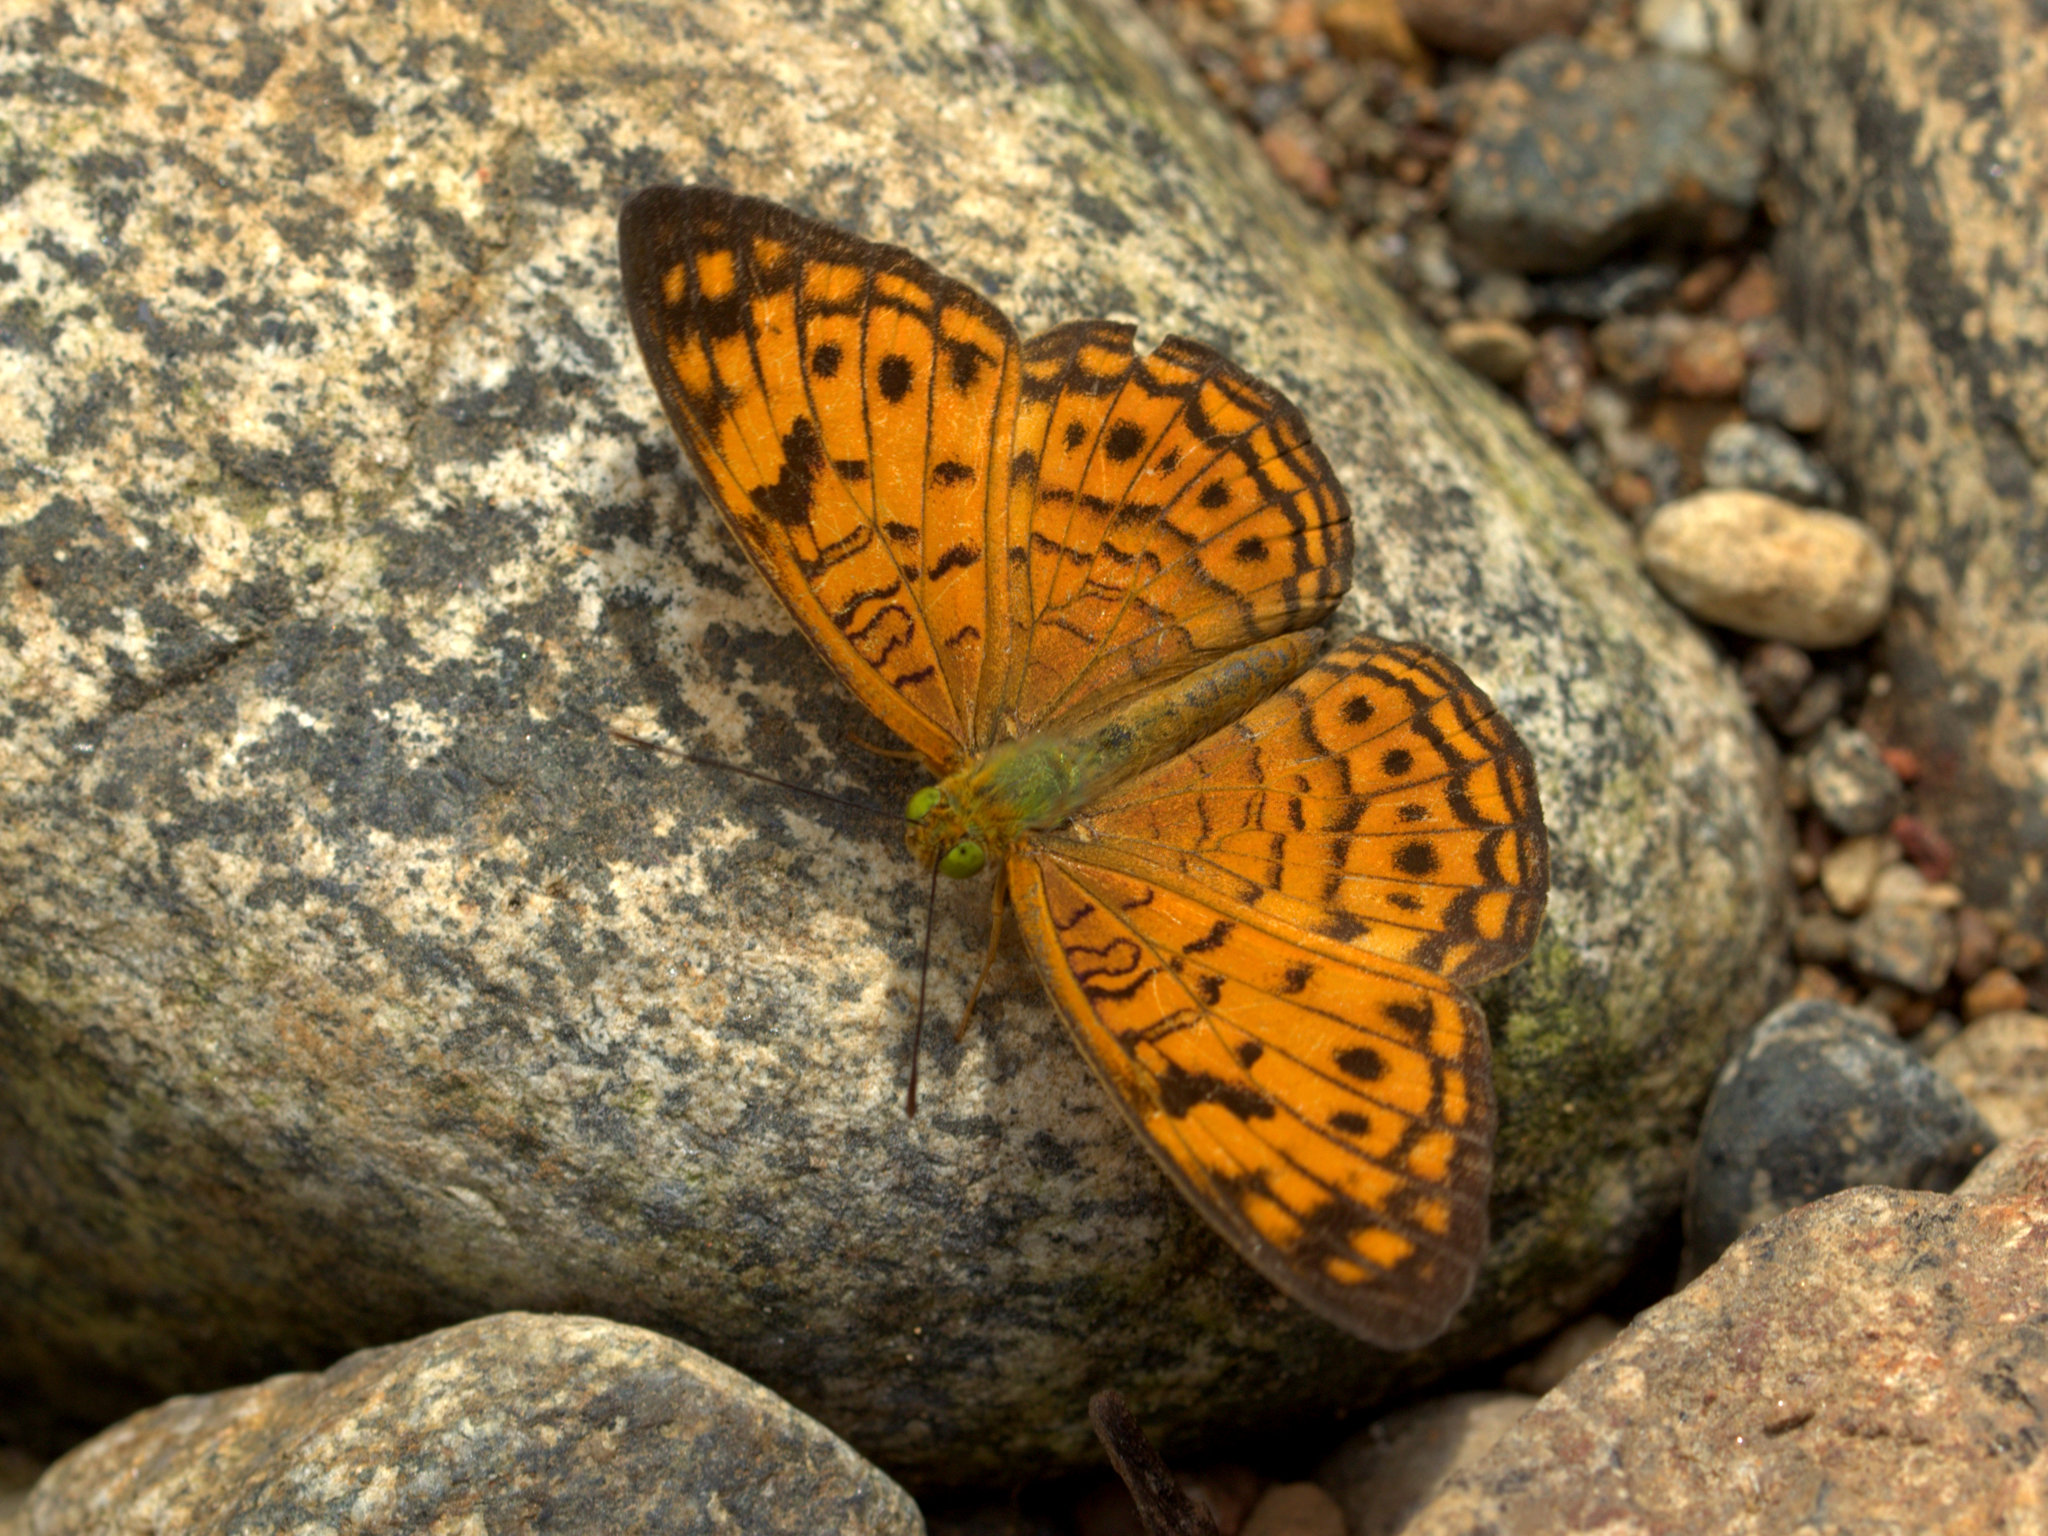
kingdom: Animalia
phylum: Arthropoda
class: Insecta
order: Lepidoptera
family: Nymphalidae
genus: Phalanta
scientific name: Phalanta alcippe
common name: Small leopard
